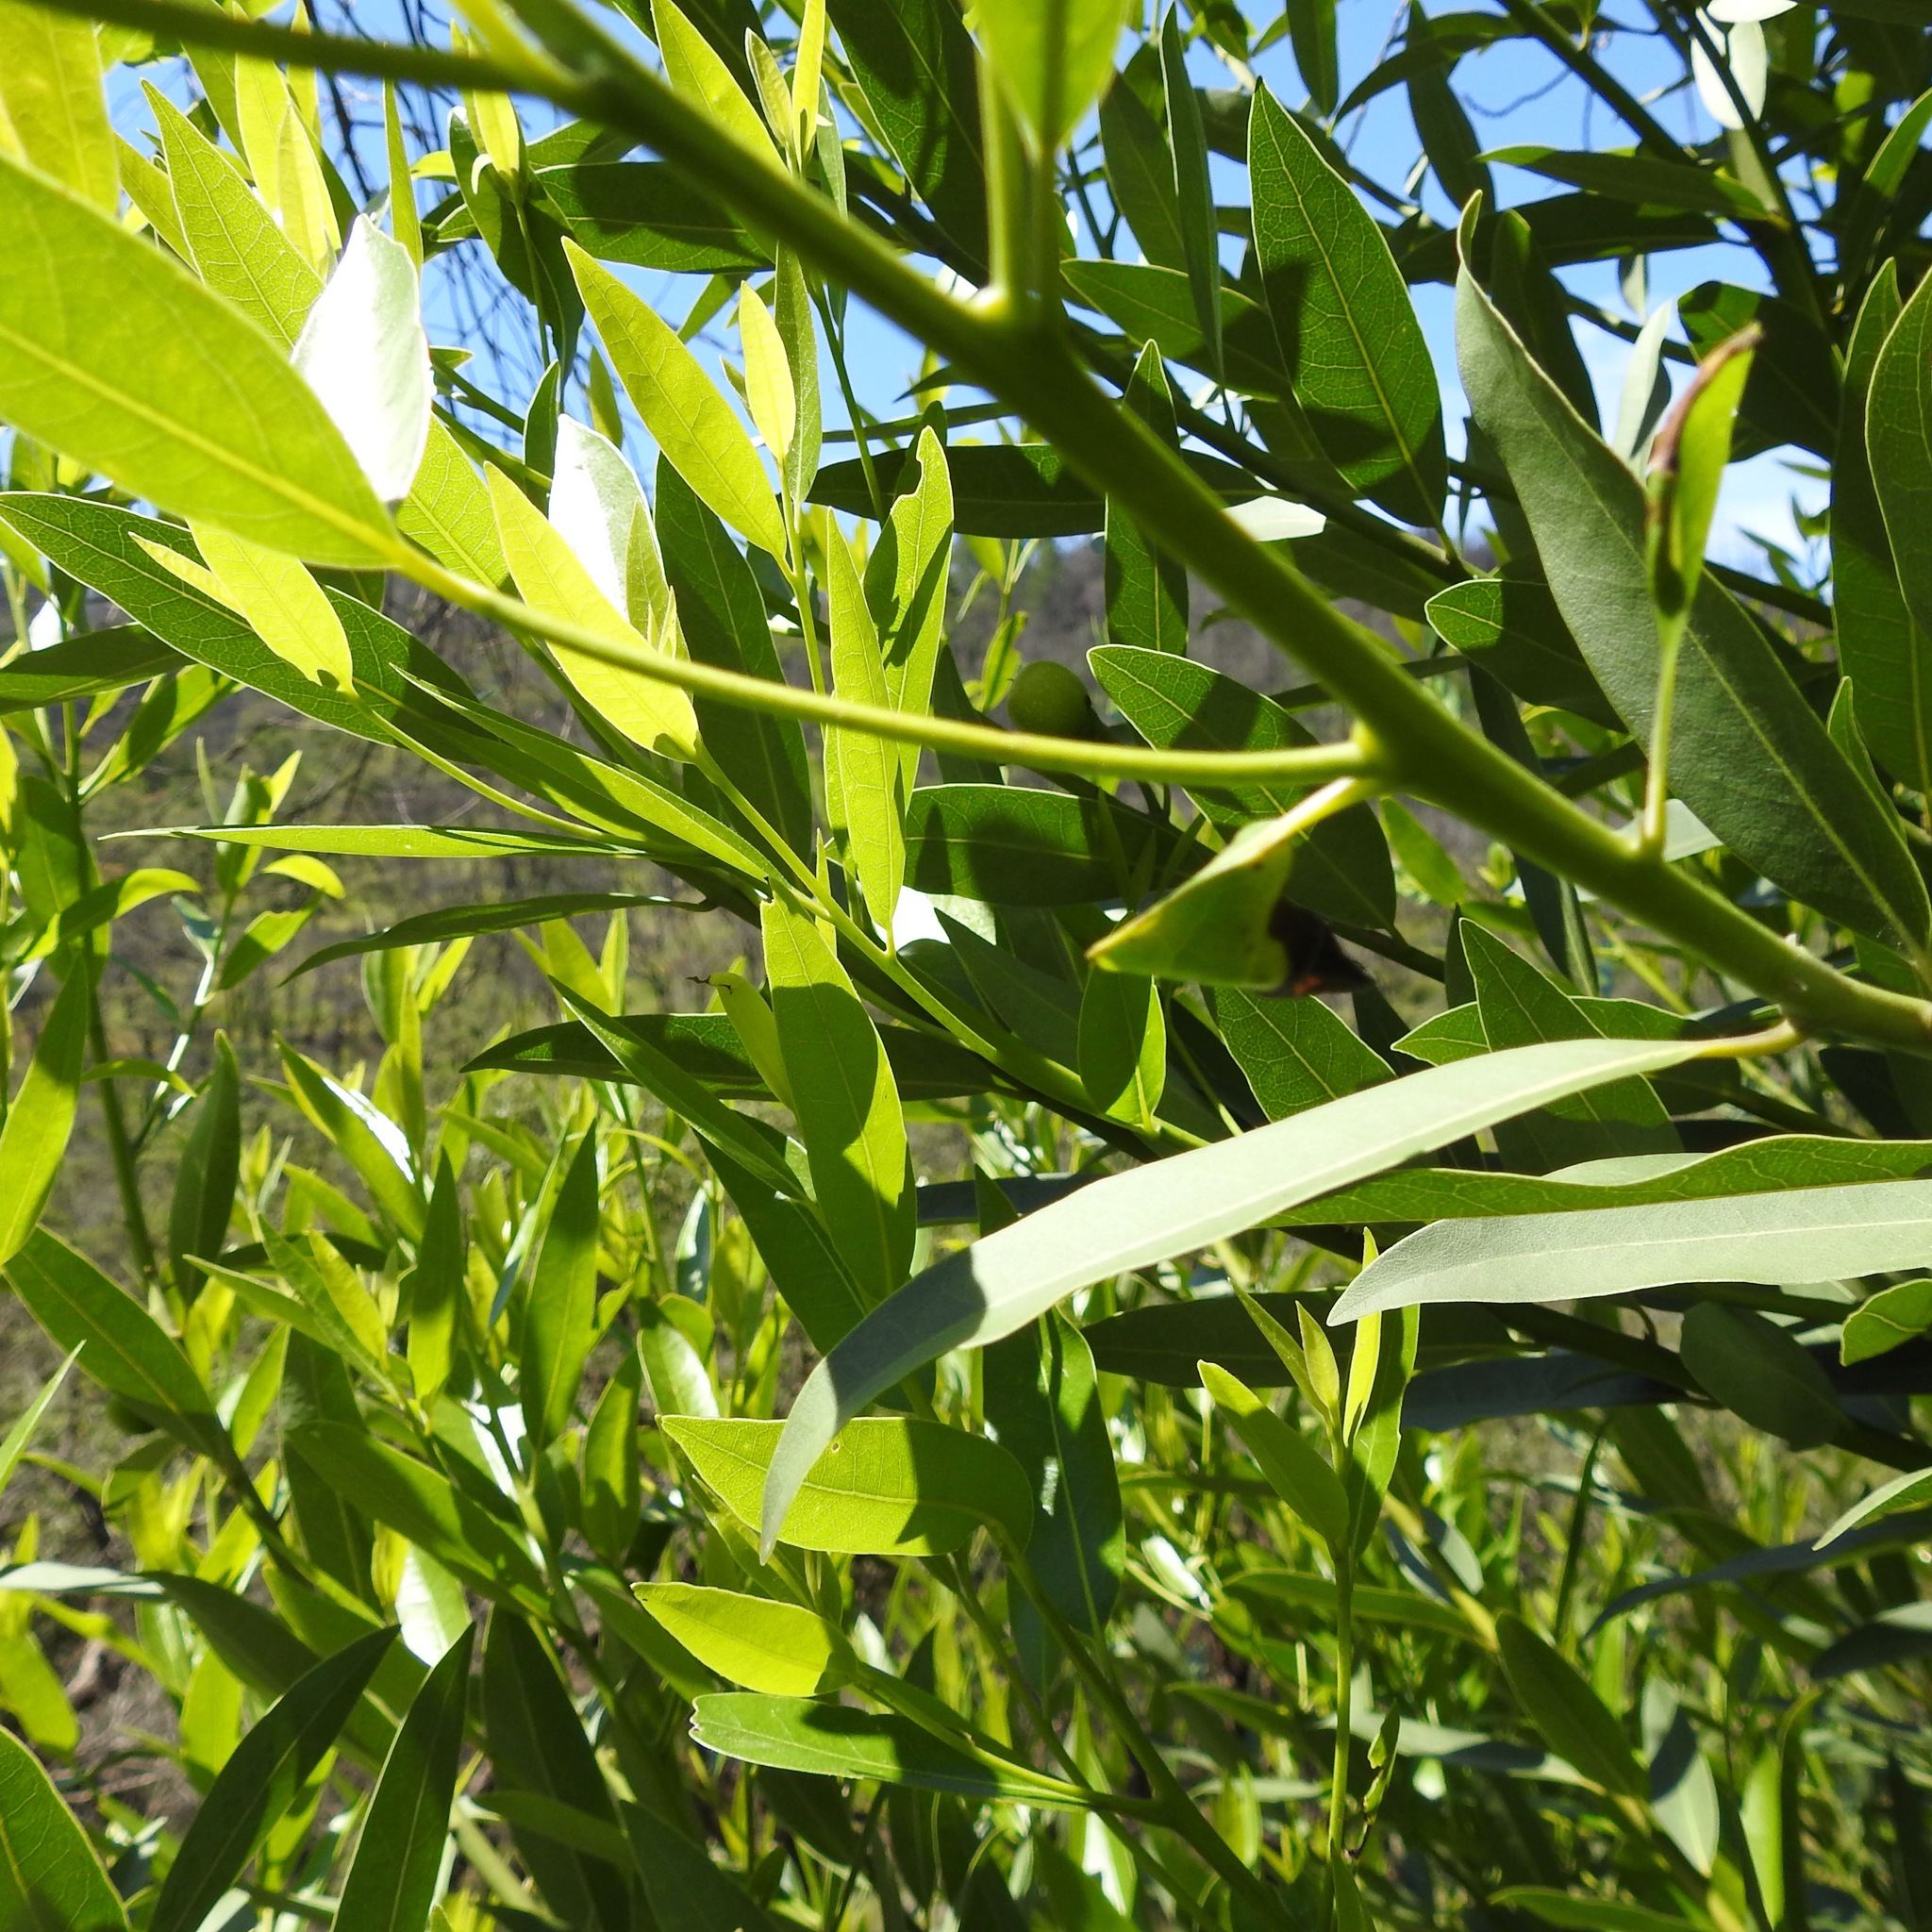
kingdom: Plantae
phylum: Tracheophyta
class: Magnoliopsida
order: Laurales
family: Lauraceae
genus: Umbellularia
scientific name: Umbellularia californica
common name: California bay
